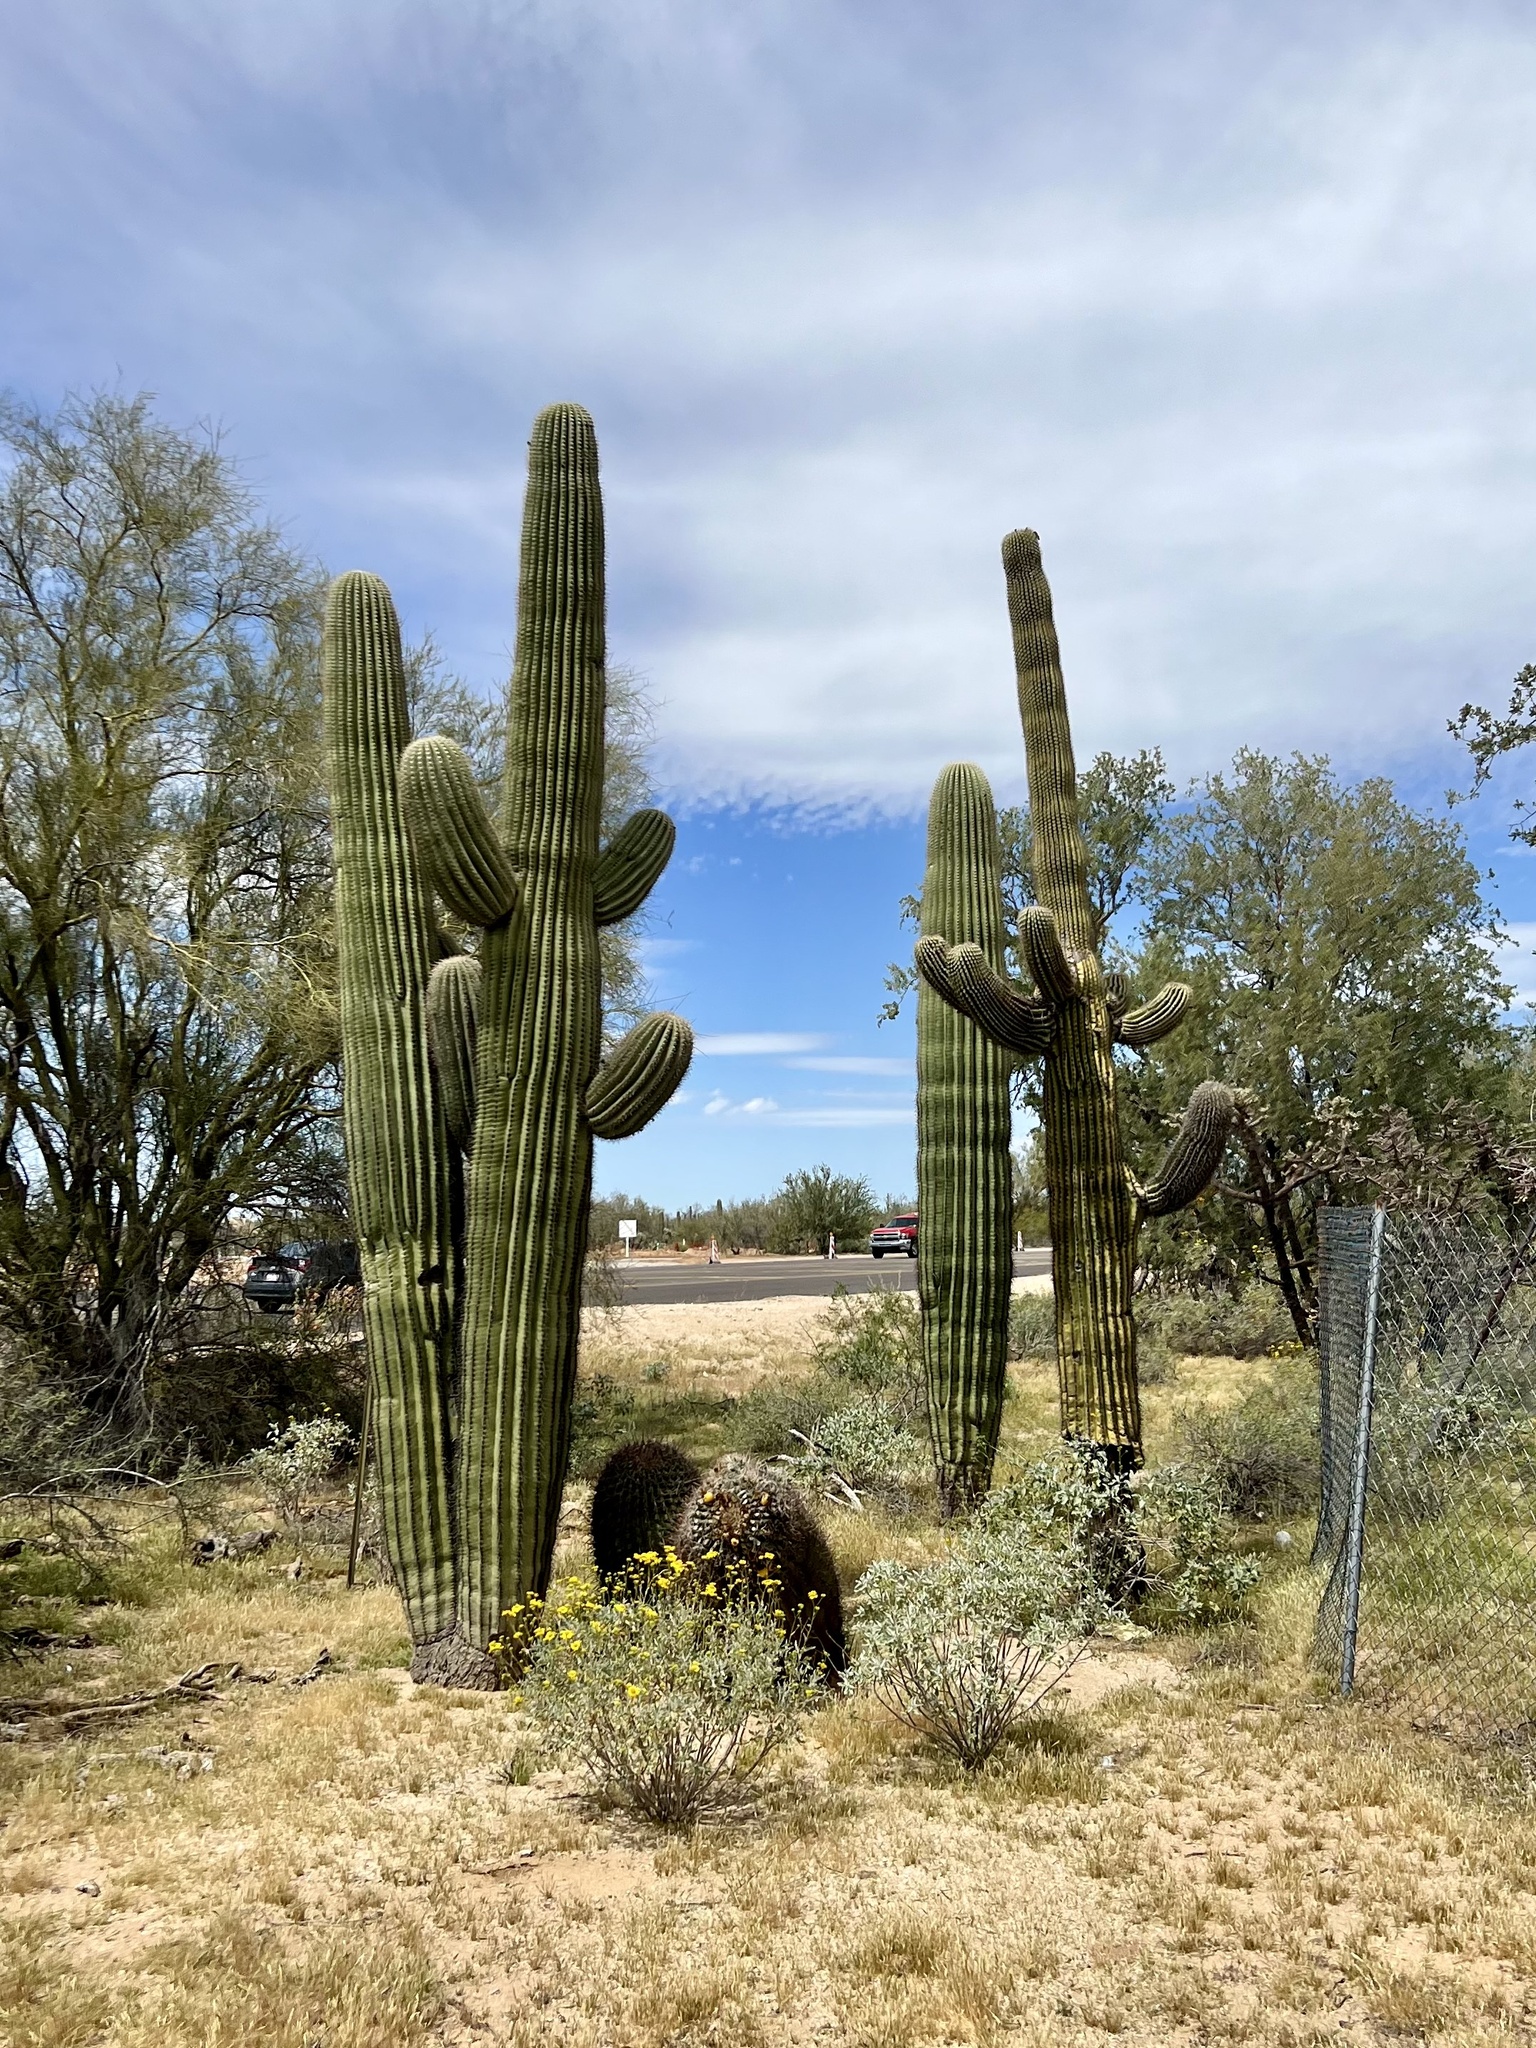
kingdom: Plantae
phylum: Tracheophyta
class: Magnoliopsida
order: Caryophyllales
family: Cactaceae
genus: Carnegiea
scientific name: Carnegiea gigantea
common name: Saguaro
